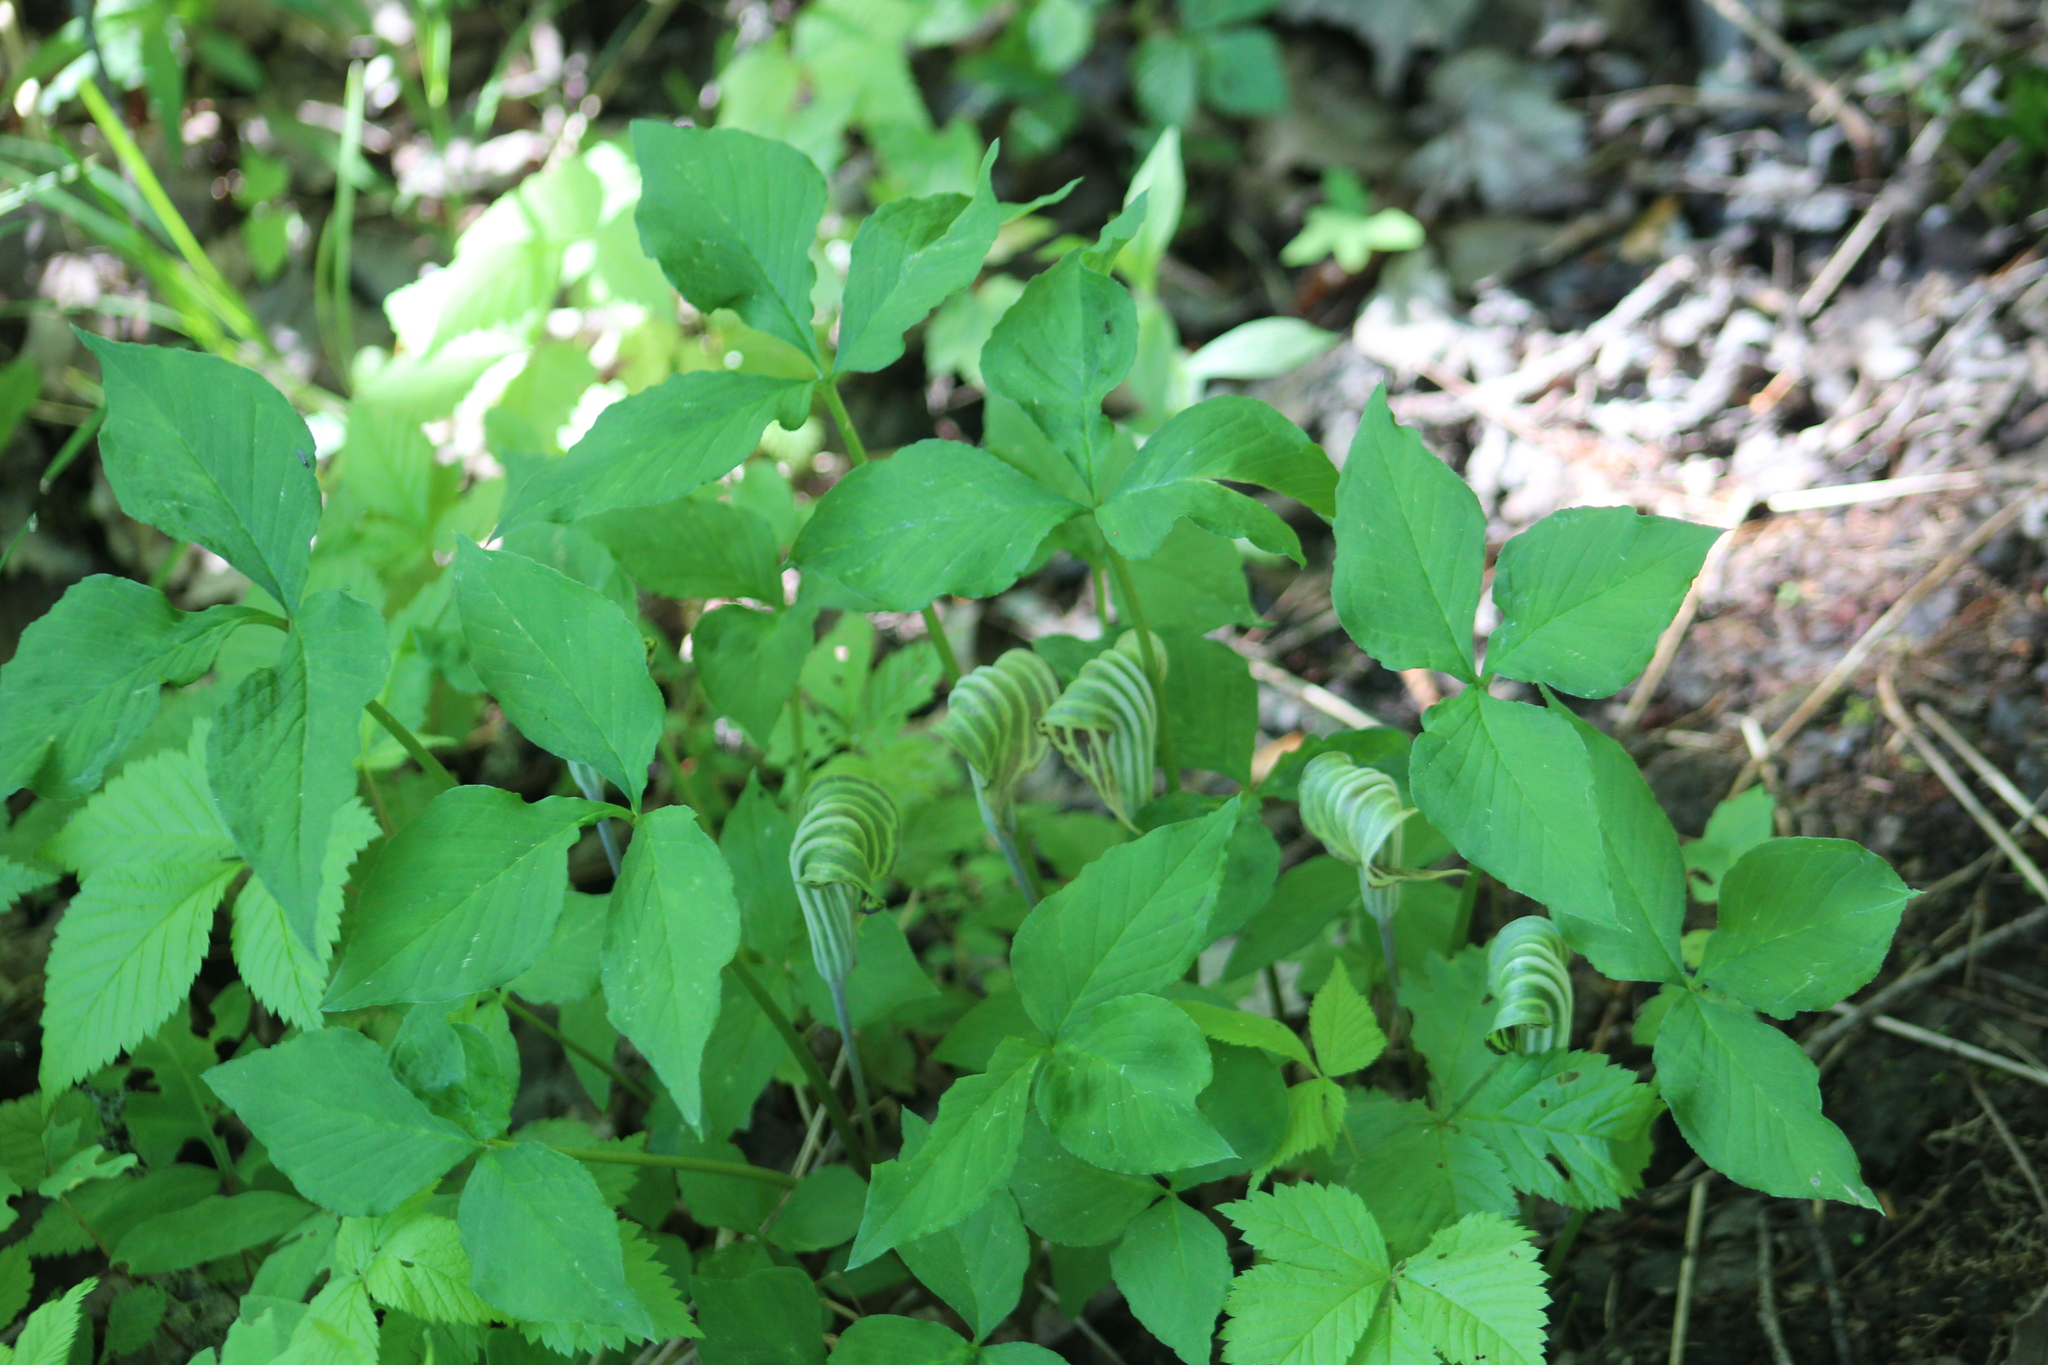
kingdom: Plantae
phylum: Tracheophyta
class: Liliopsida
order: Alismatales
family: Araceae
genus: Arisaema
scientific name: Arisaema triphyllum
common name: Jack-in-the-pulpit
